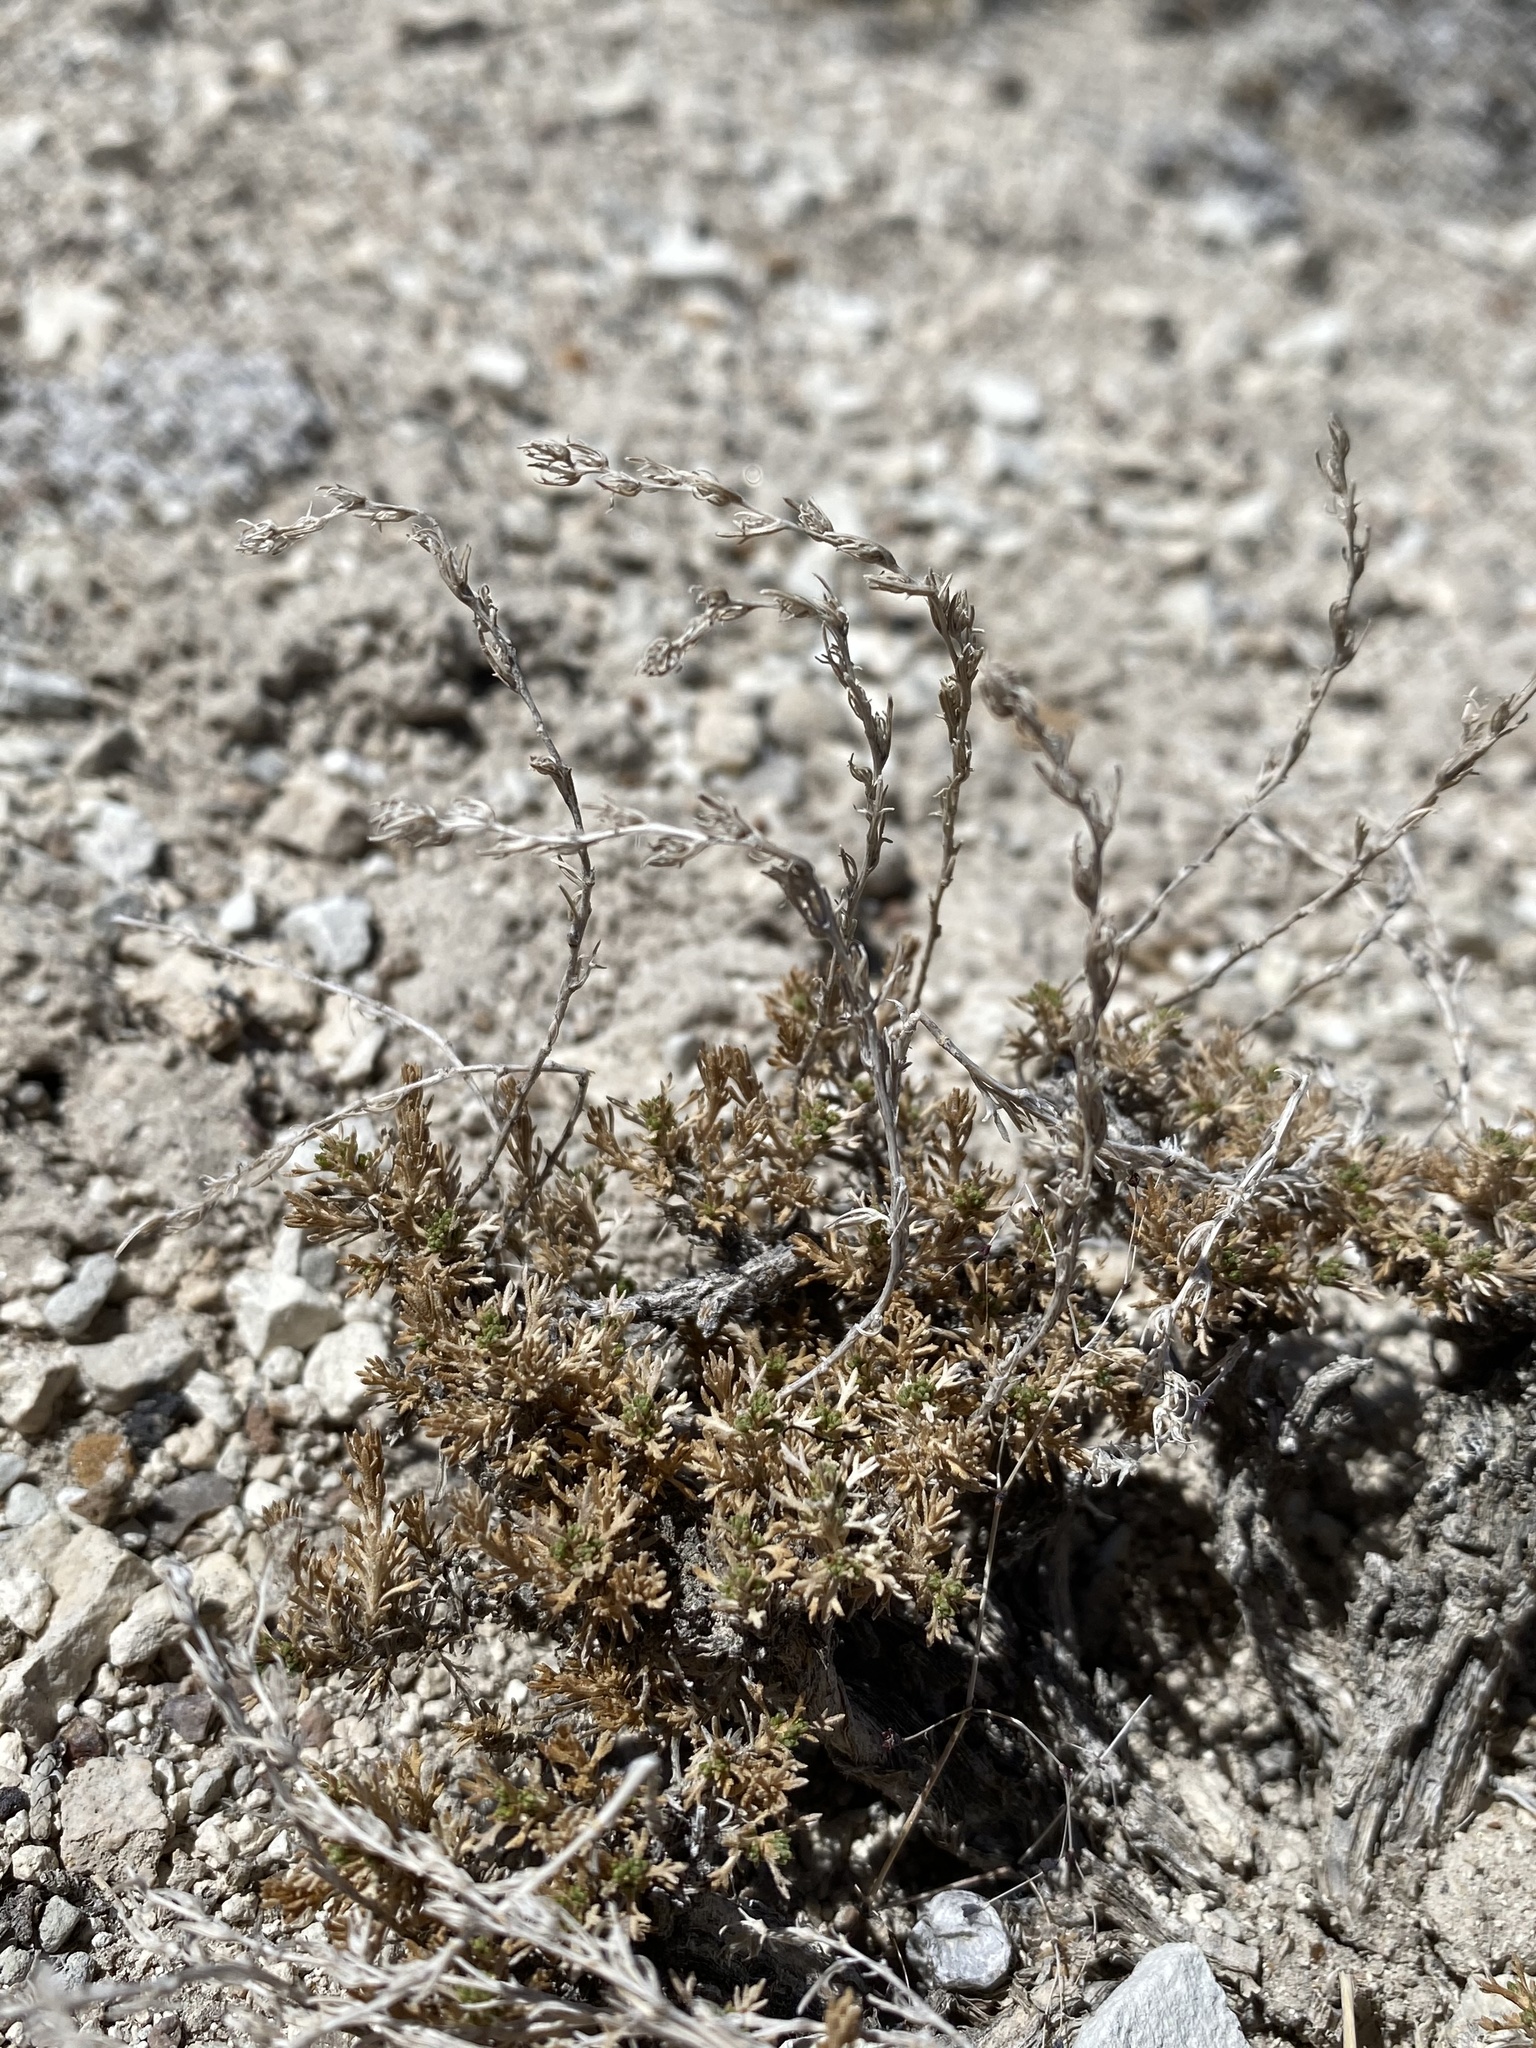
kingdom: Plantae
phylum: Tracheophyta
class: Magnoliopsida
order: Asterales
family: Asteraceae
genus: Artemisia
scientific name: Artemisia pygmaea
